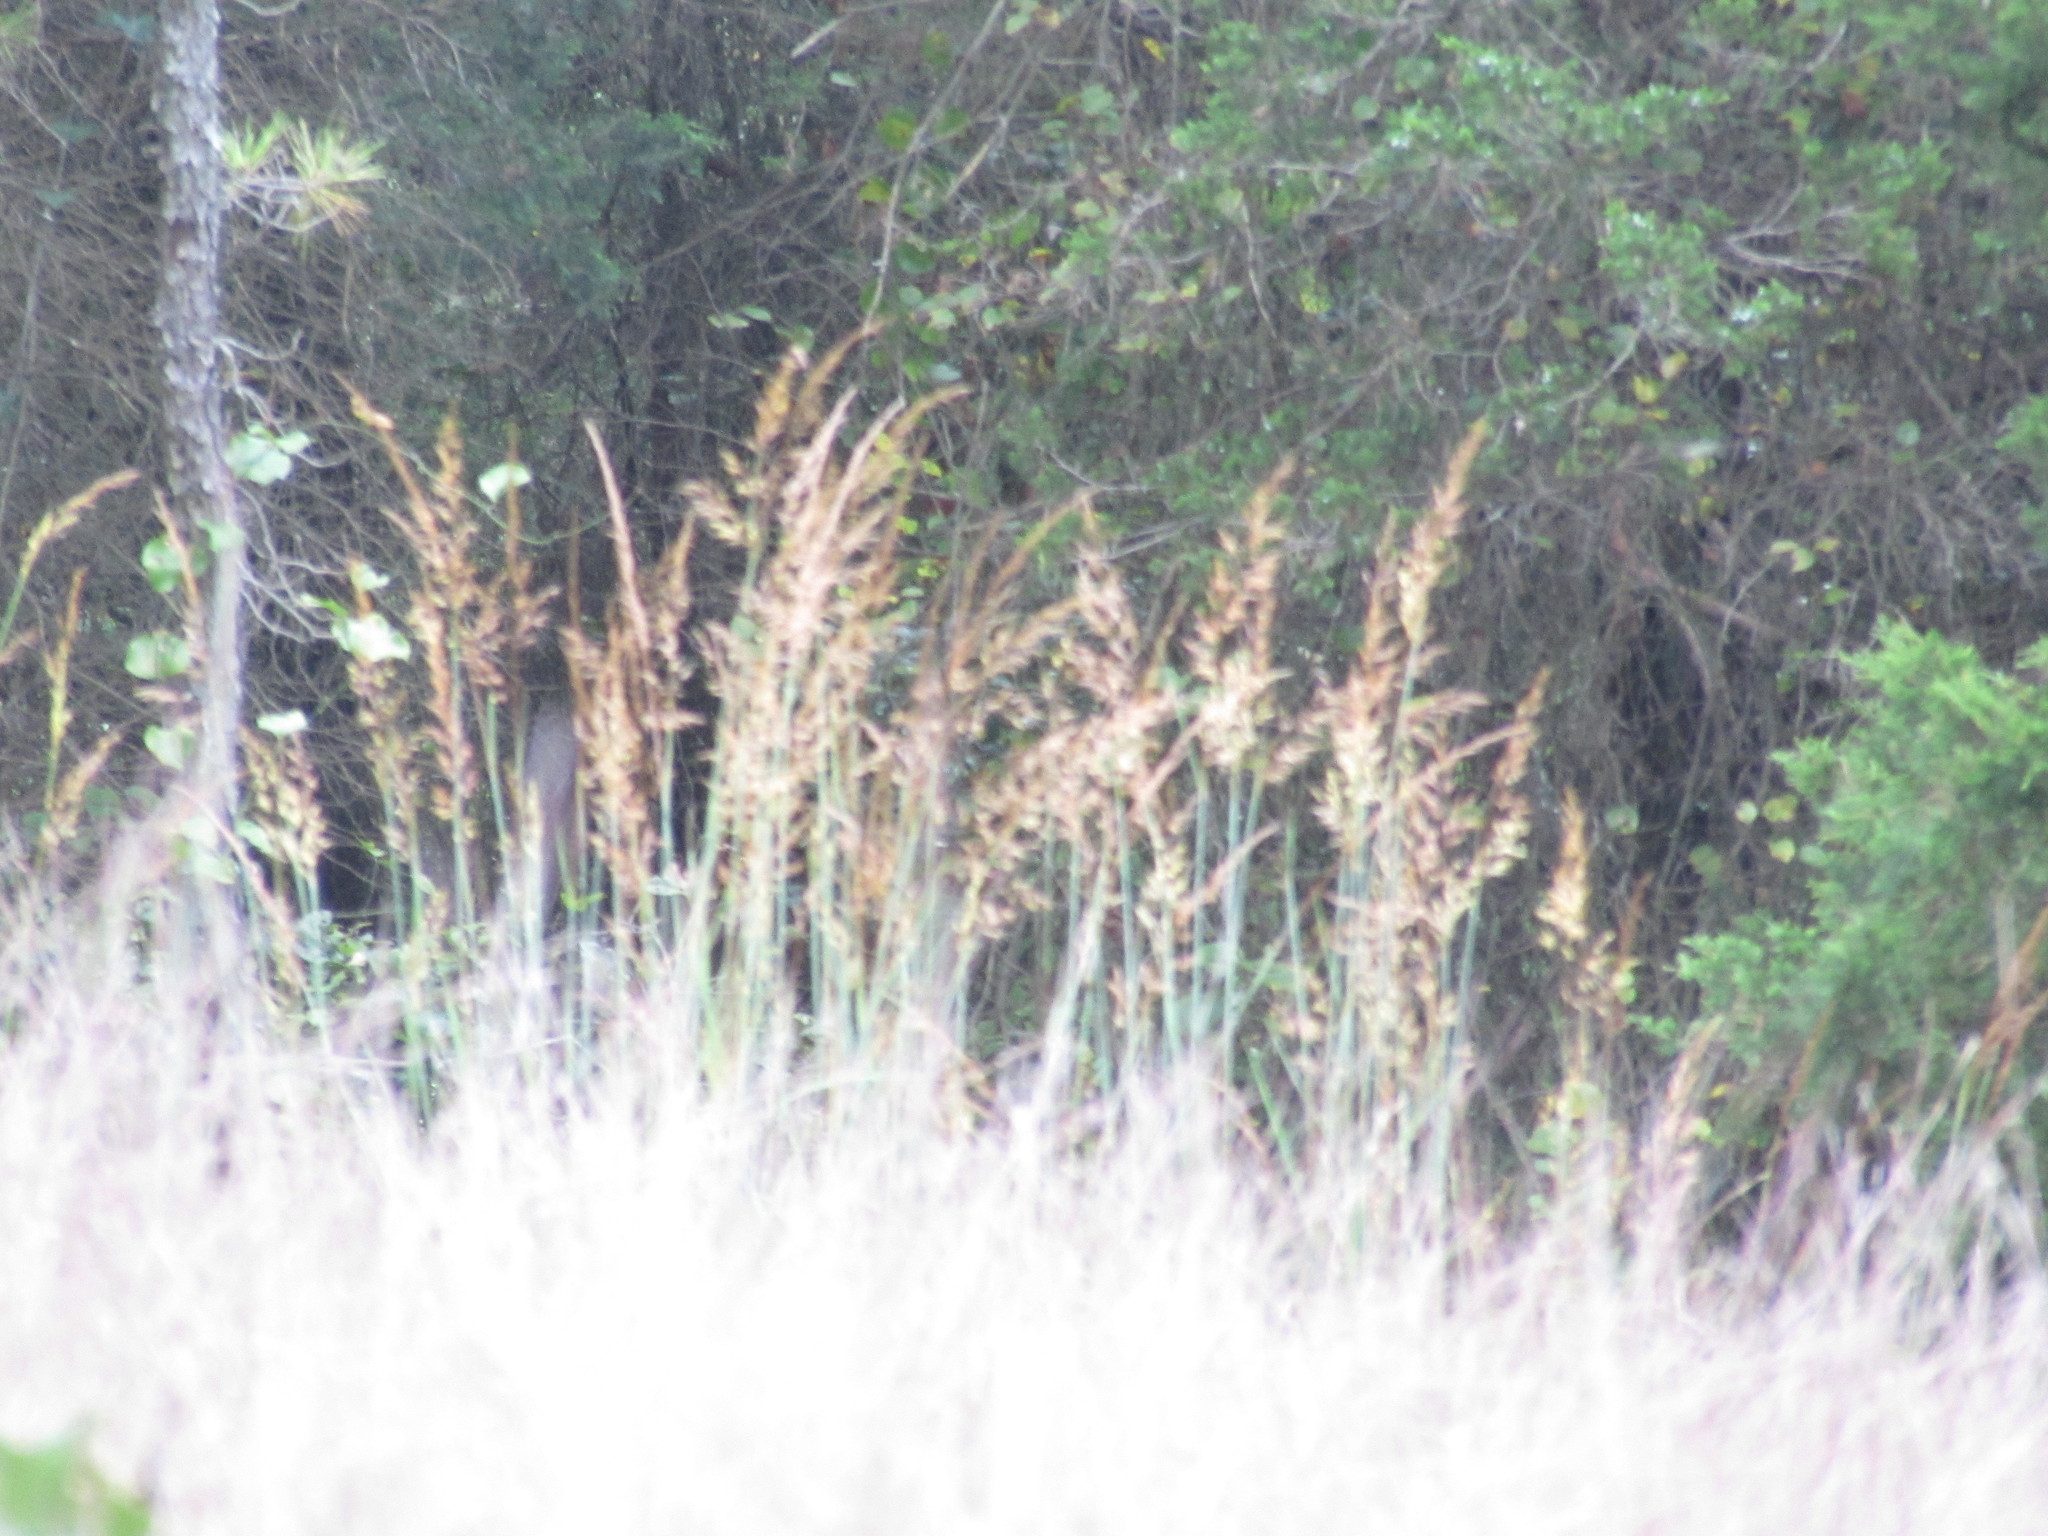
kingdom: Plantae
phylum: Tracheophyta
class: Liliopsida
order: Poales
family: Poaceae
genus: Sorghastrum
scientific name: Sorghastrum nutans
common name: Indian grass
